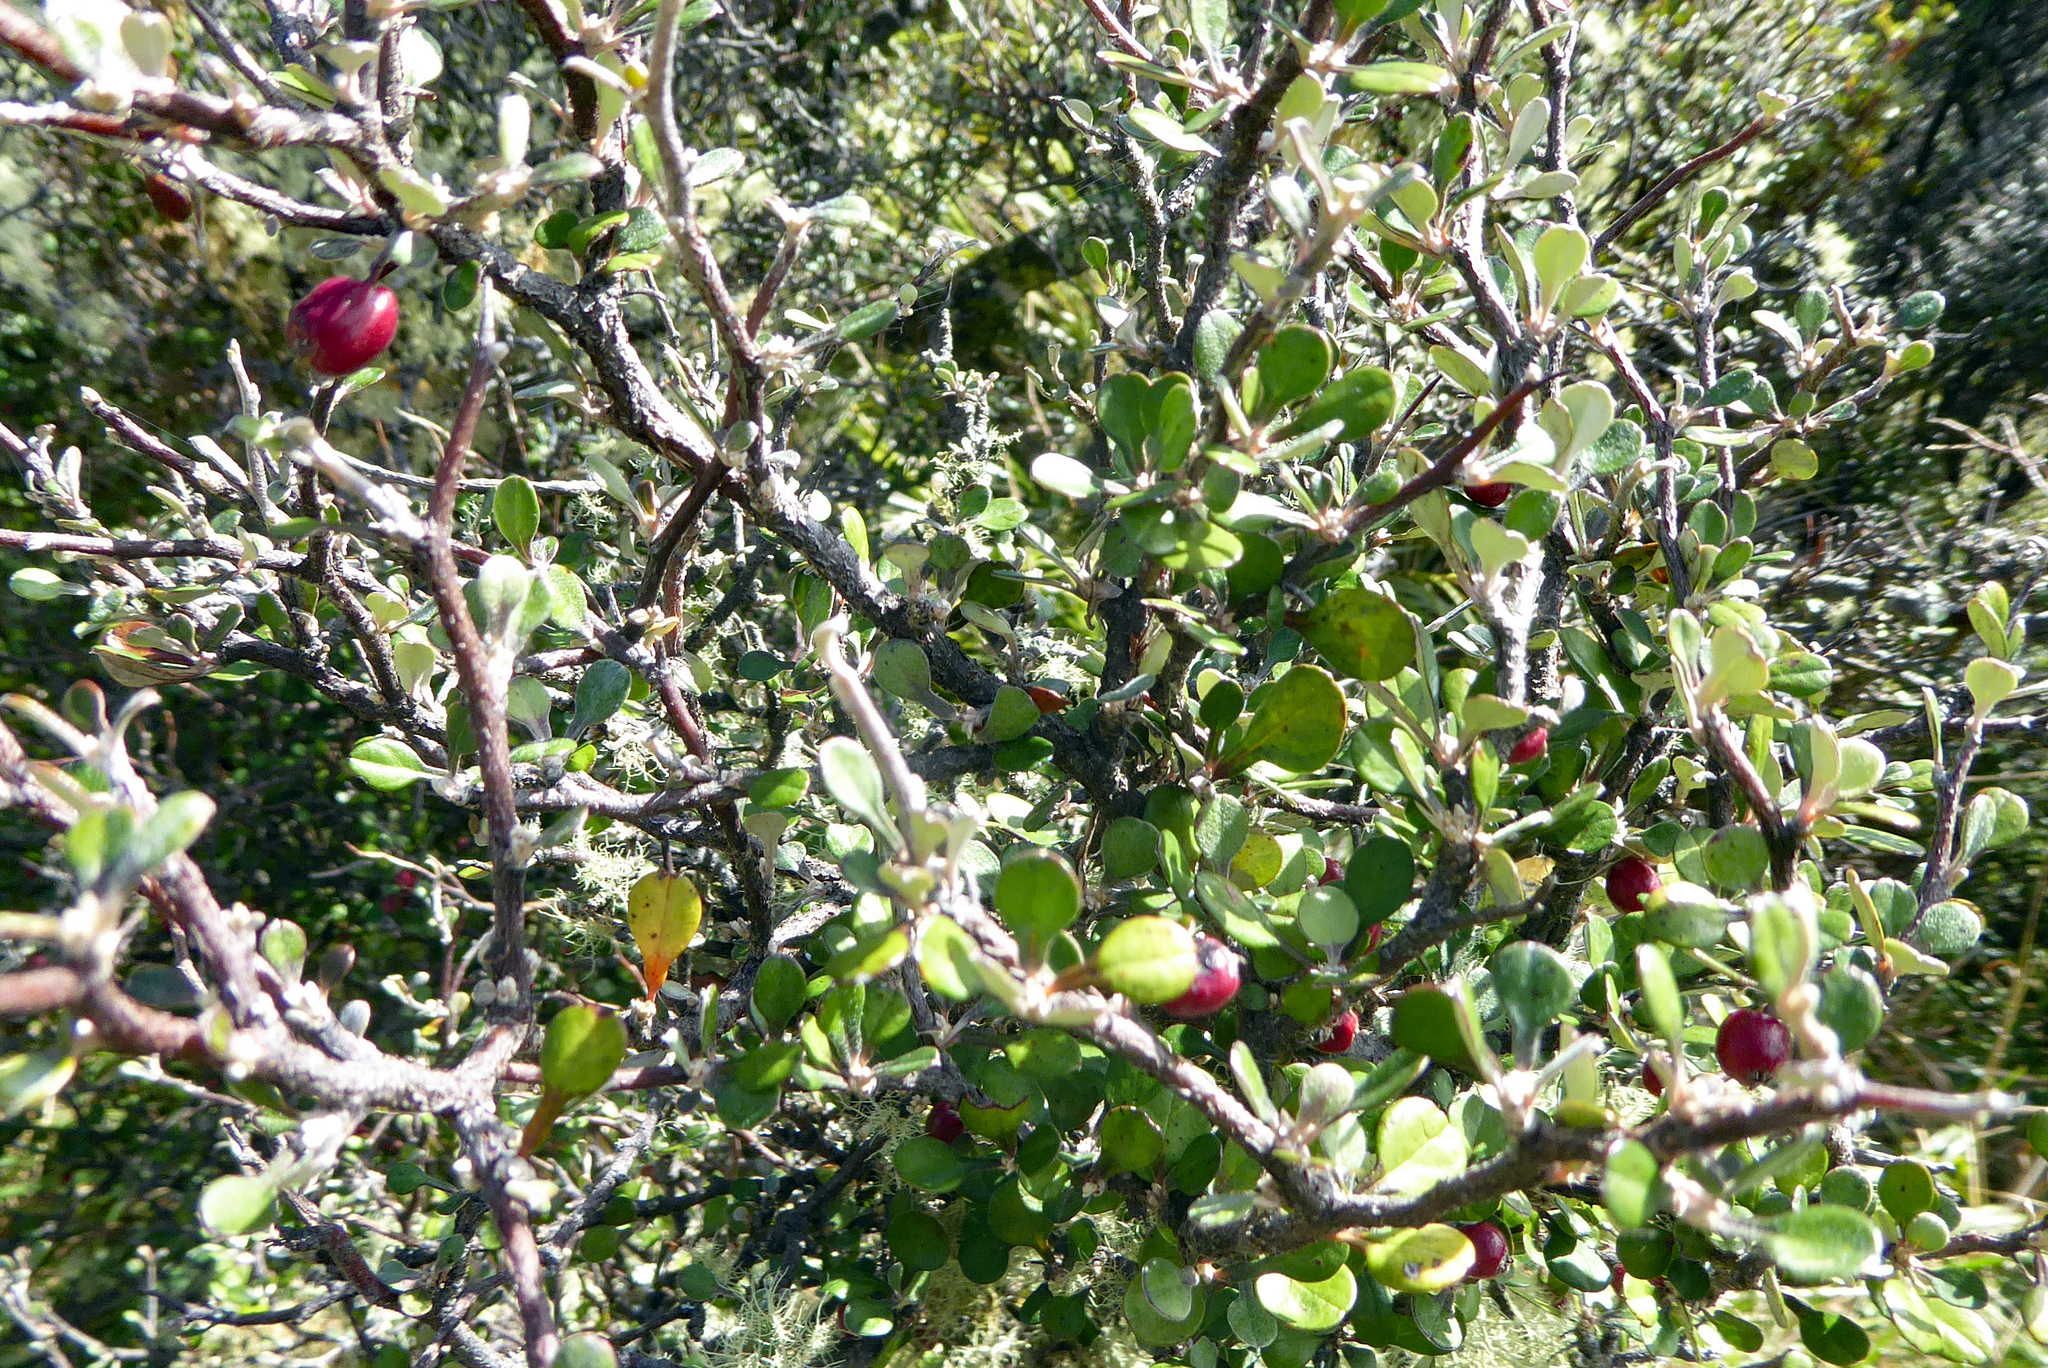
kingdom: Plantae
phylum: Tracheophyta
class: Magnoliopsida
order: Asterales
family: Argophyllaceae
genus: Corokia
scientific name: Corokia cotoneaster
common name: Wire nettingbush
